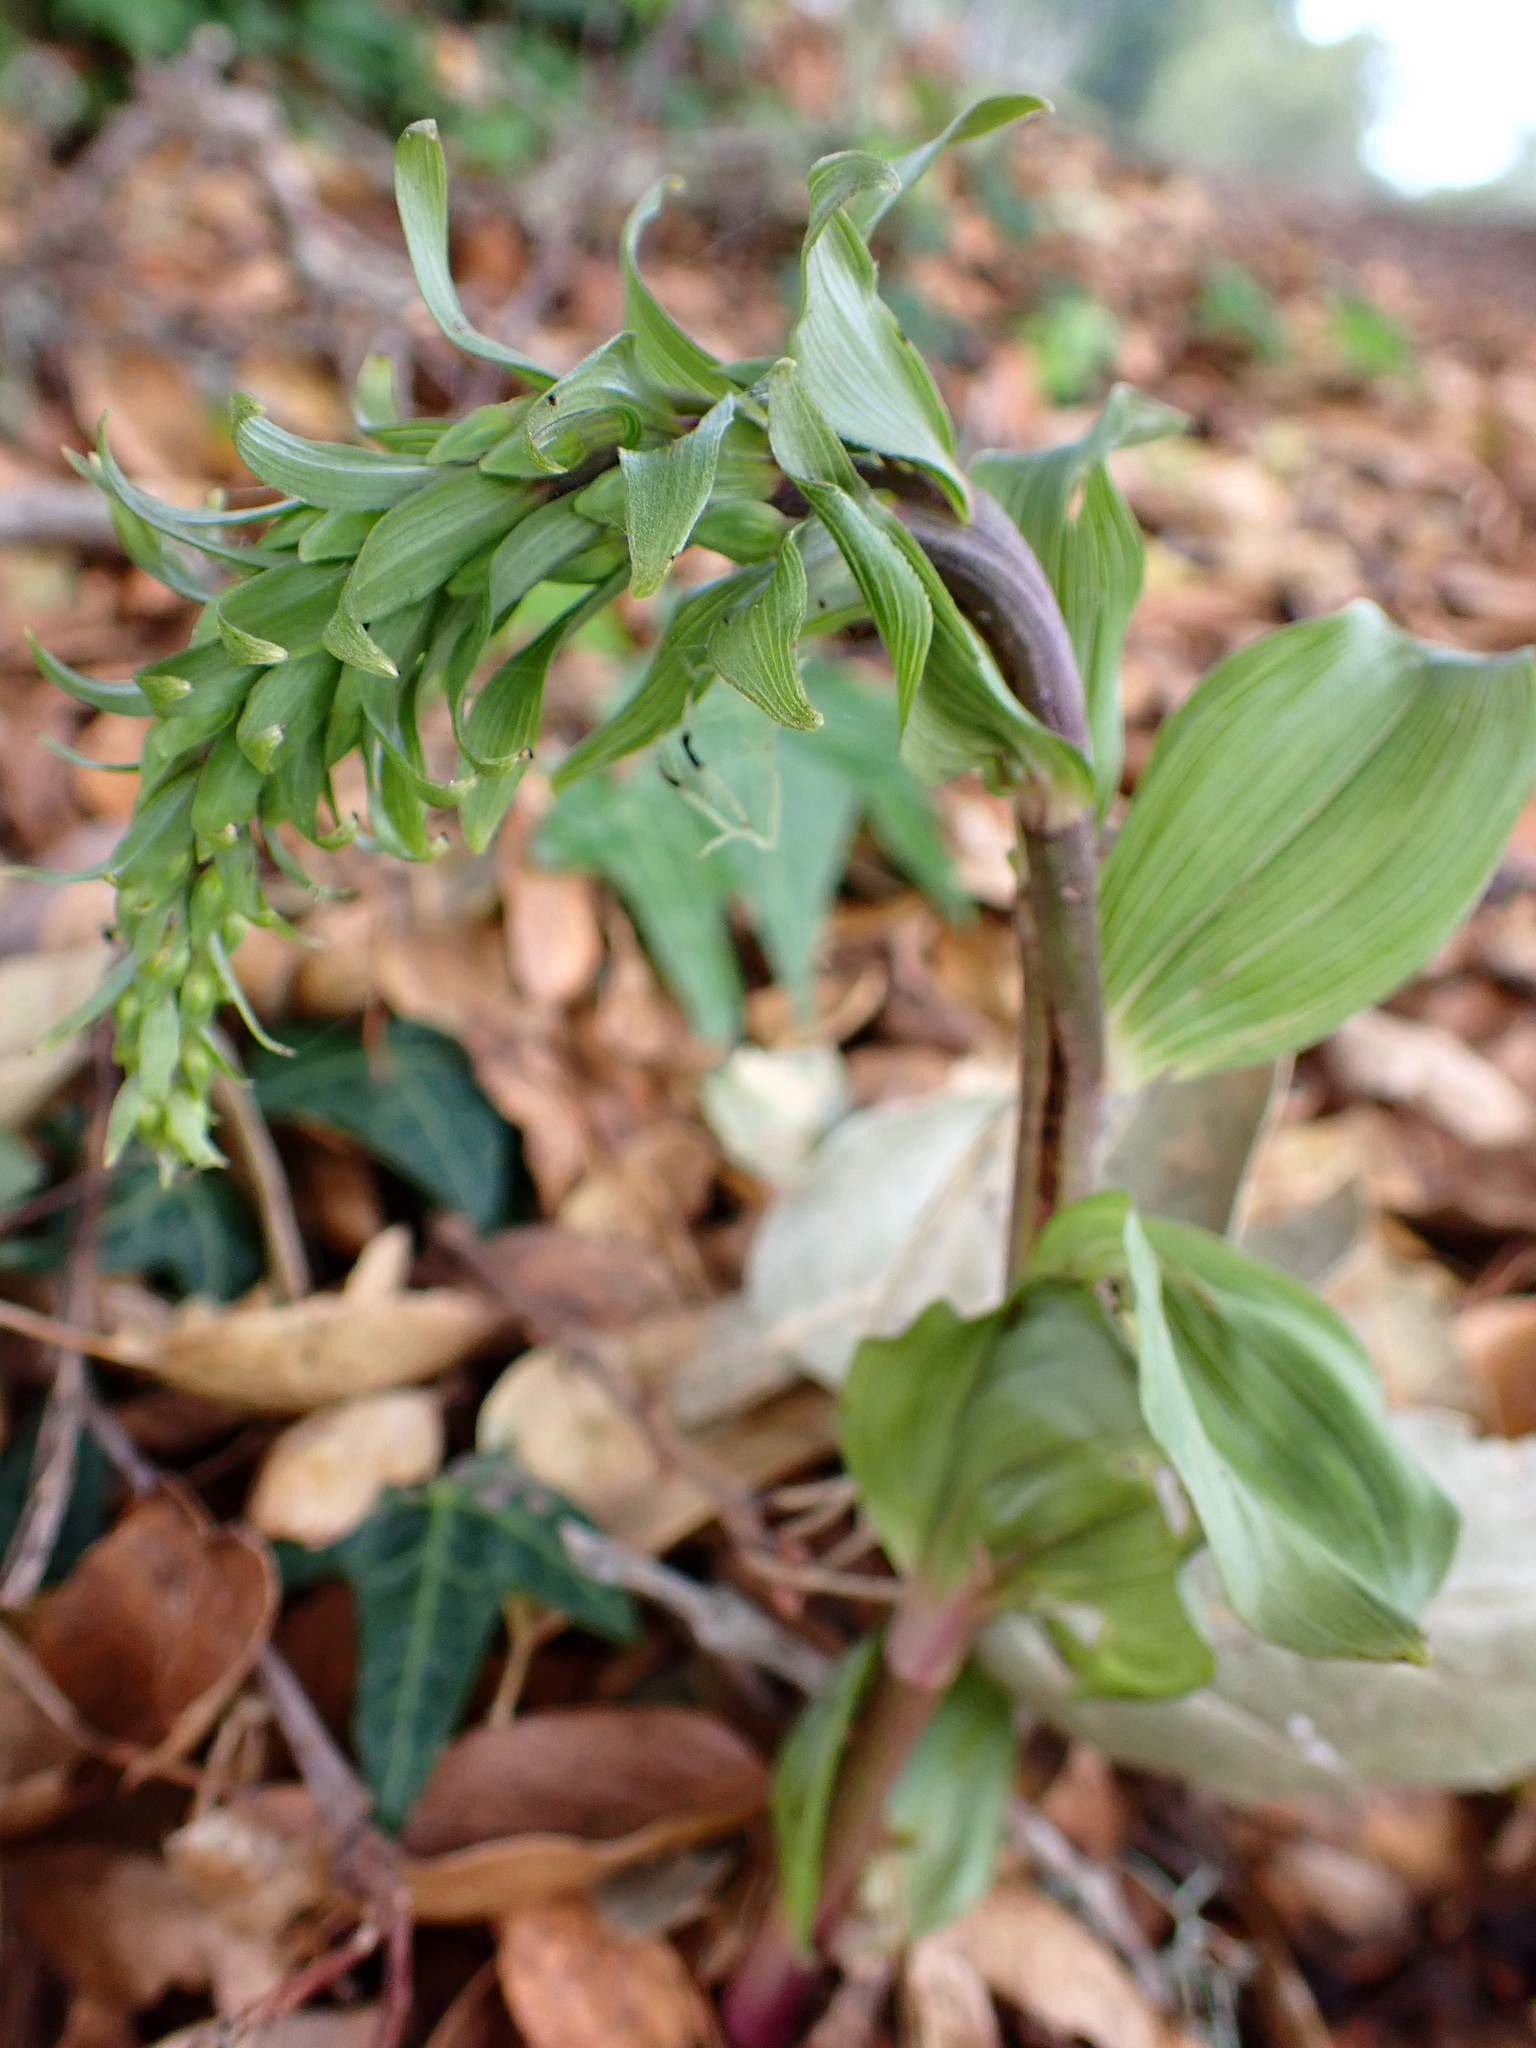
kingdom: Plantae
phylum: Tracheophyta
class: Liliopsida
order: Asparagales
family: Orchidaceae
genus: Epipactis
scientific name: Epipactis helleborine
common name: Broad-leaved helleborine
